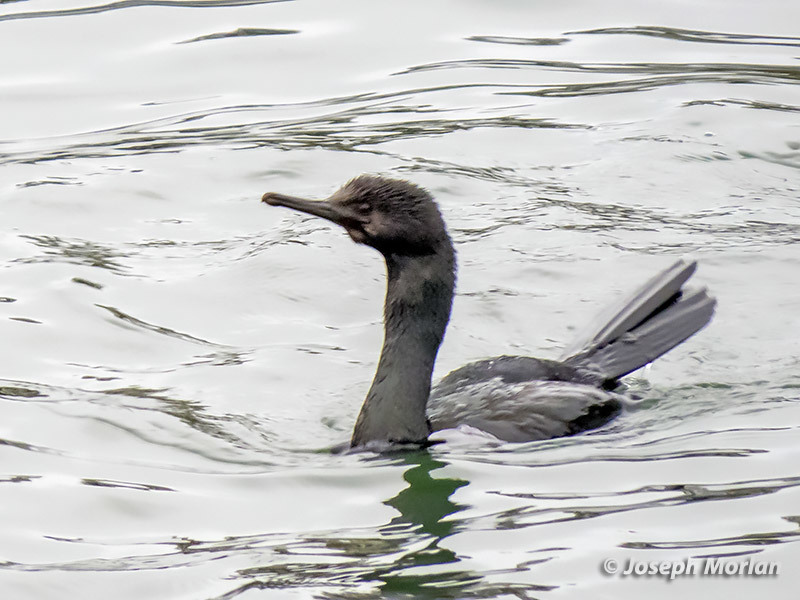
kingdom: Animalia
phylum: Chordata
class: Aves
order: Suliformes
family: Phalacrocoracidae
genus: Phalacrocorax
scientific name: Phalacrocorax pelagicus
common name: Pelagic cormorant
